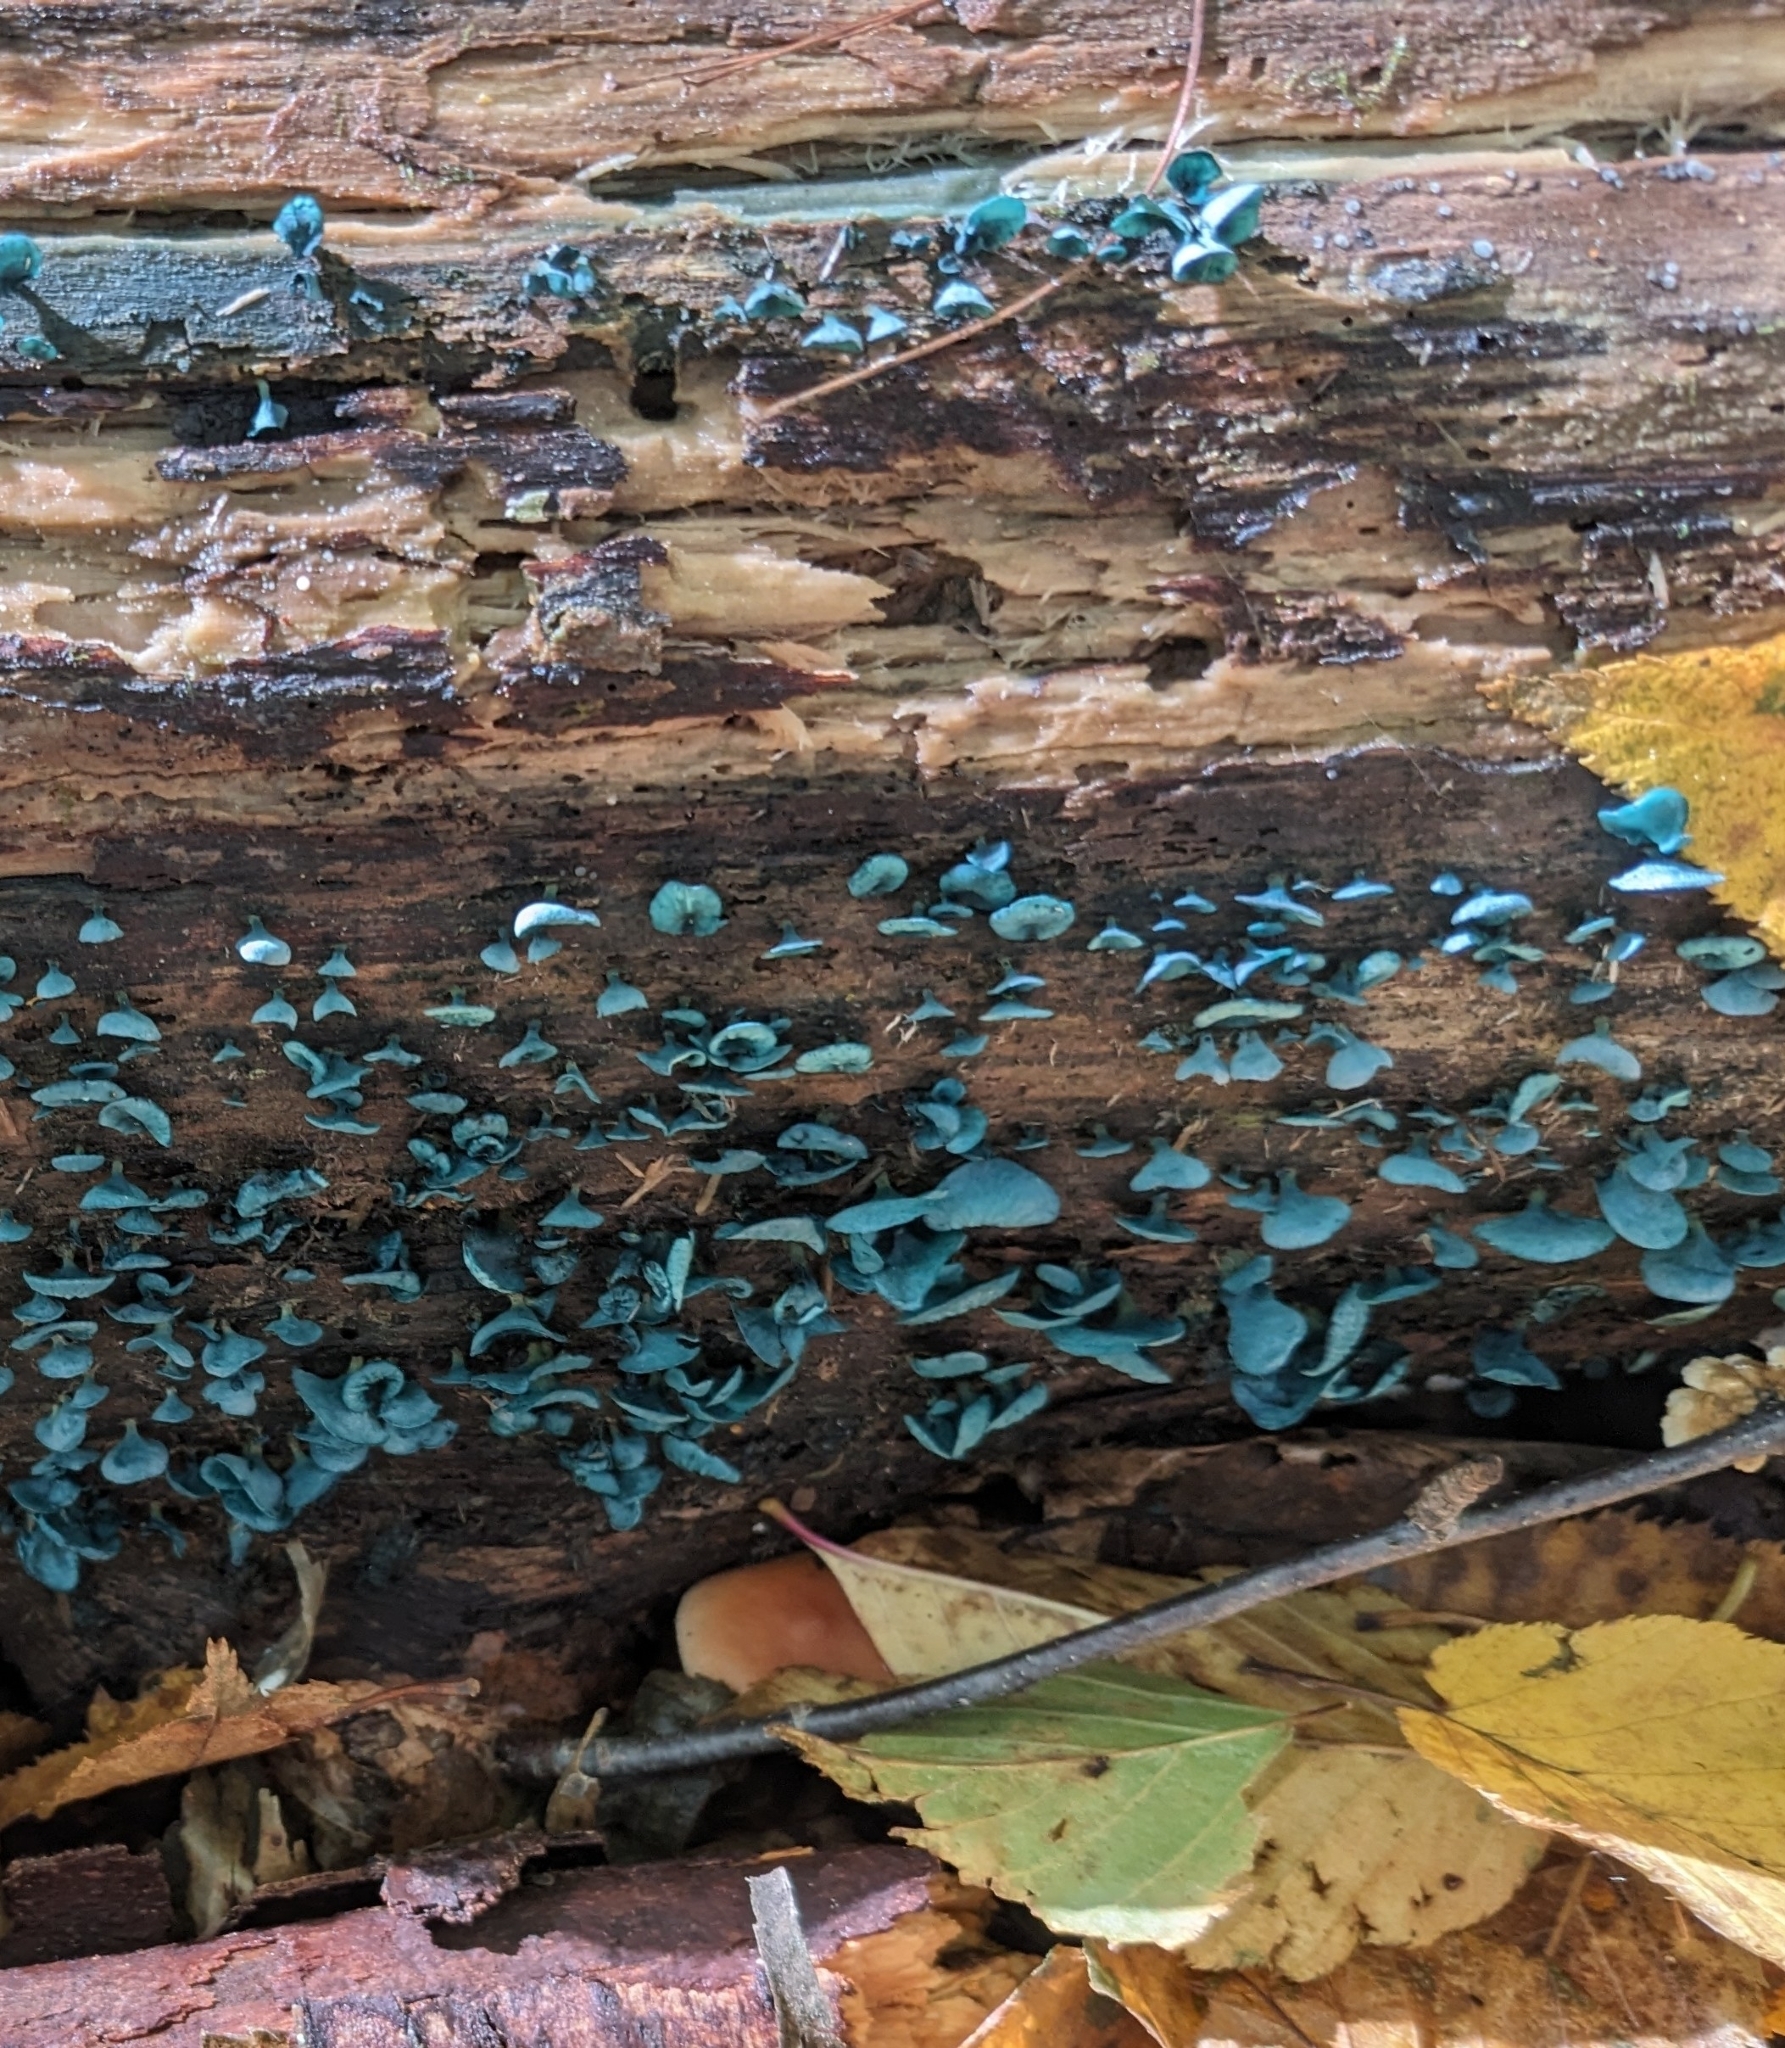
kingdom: Fungi
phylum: Ascomycota
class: Leotiomycetes
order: Helotiales
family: Chlorociboriaceae
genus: Chlorociboria
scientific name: Chlorociboria aeruginascens
